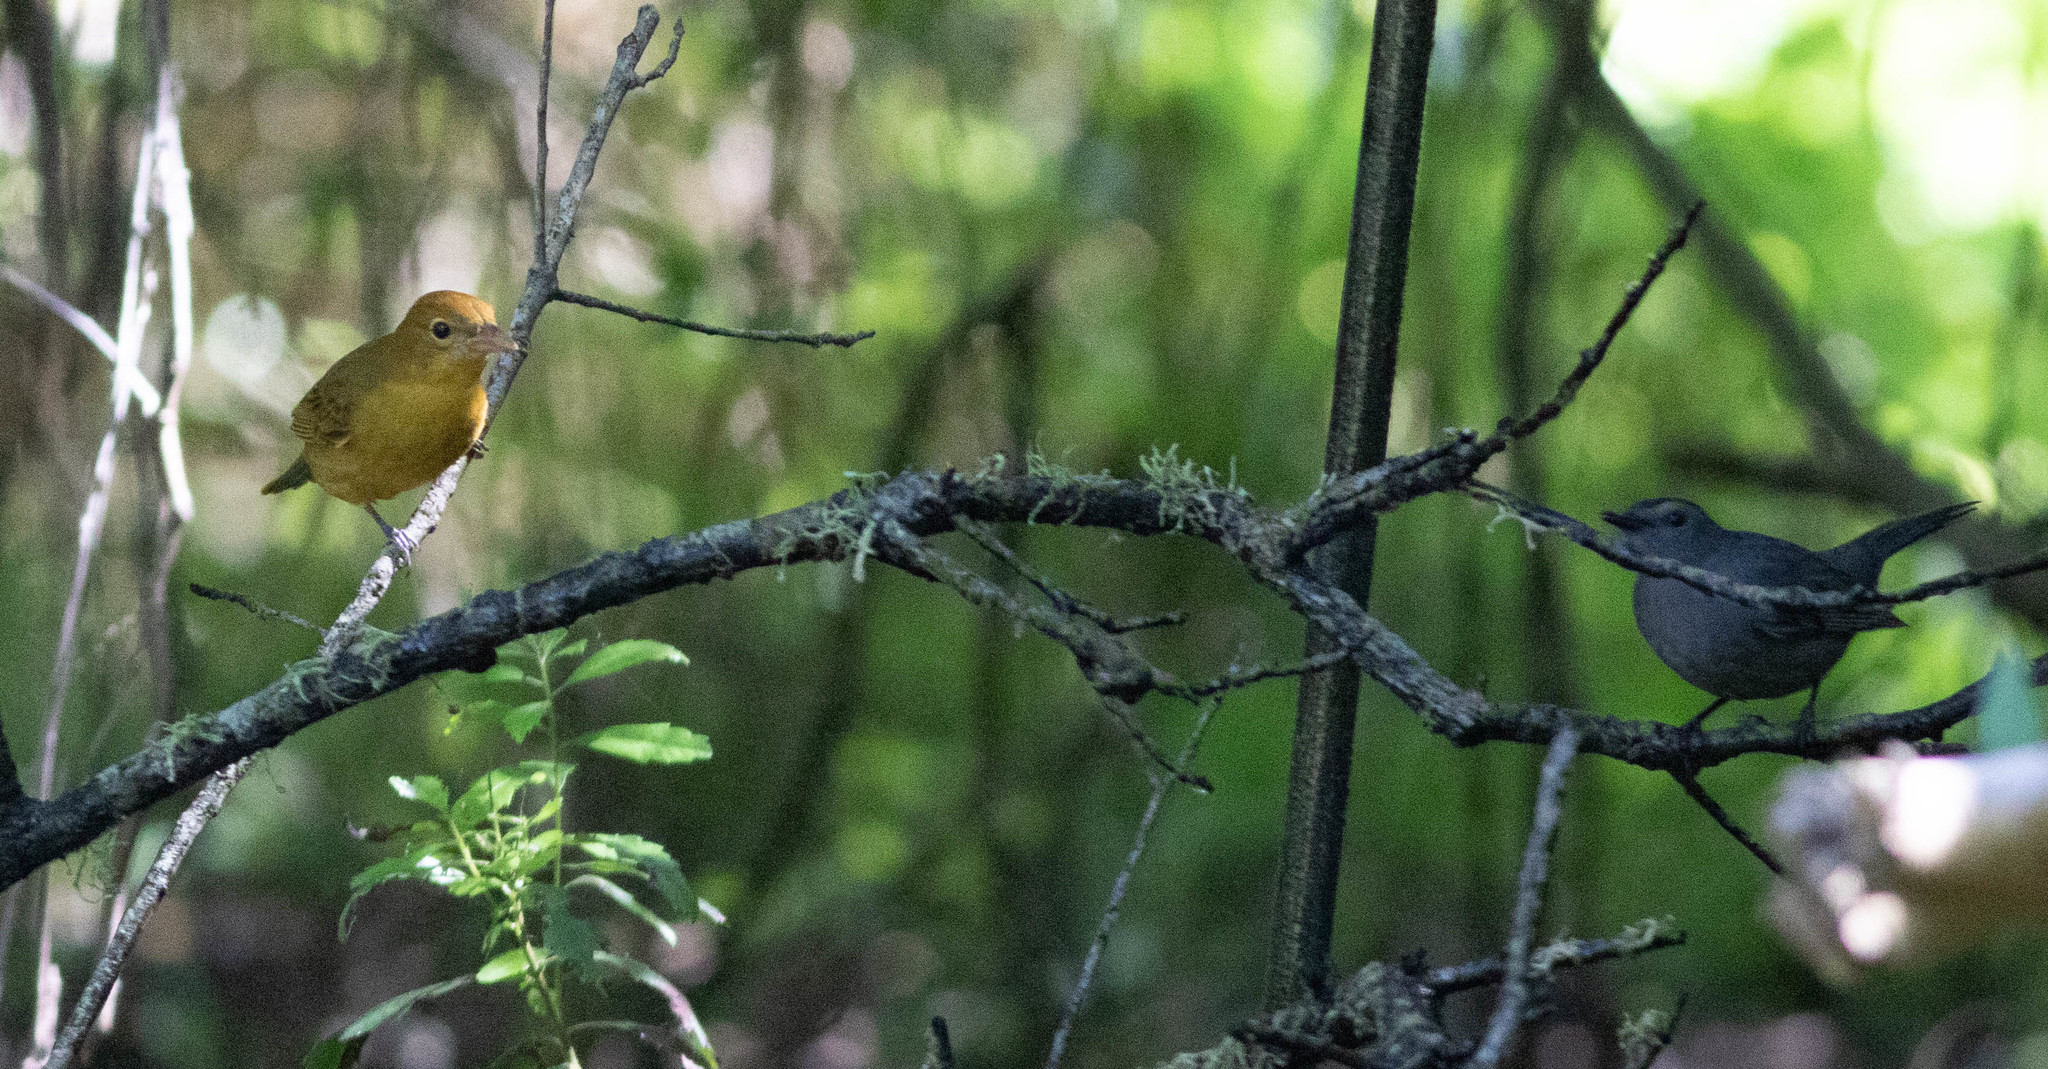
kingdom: Animalia
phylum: Chordata
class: Aves
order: Passeriformes
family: Cardinalidae
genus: Piranga
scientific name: Piranga rubra
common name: Summer tanager
